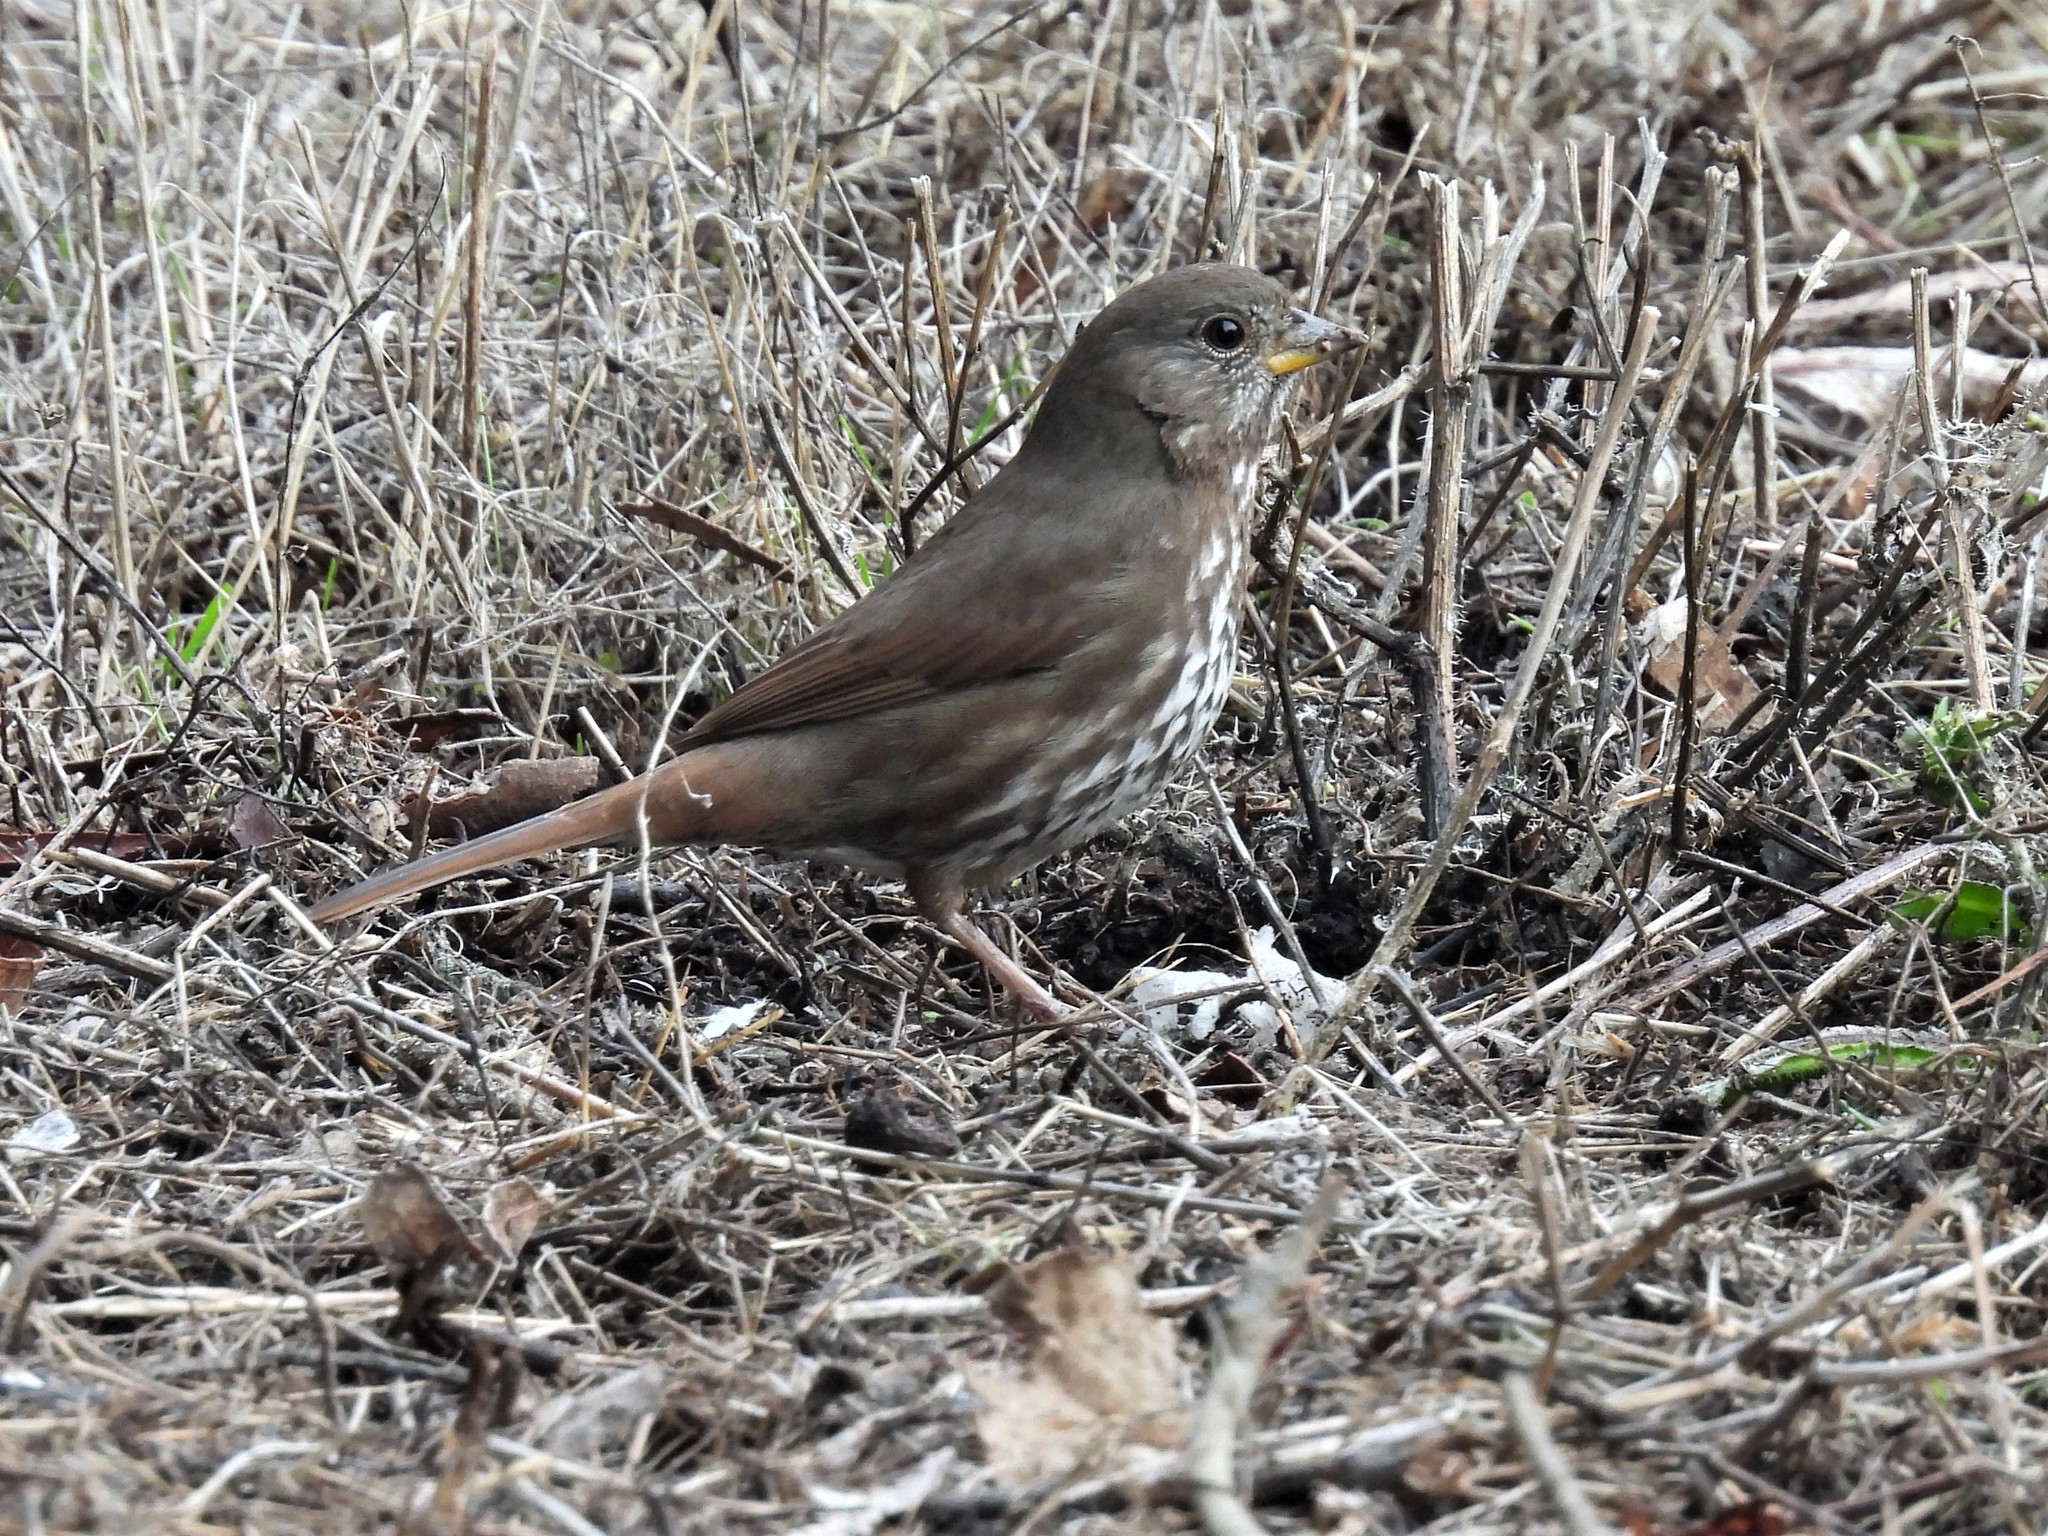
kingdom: Animalia
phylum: Chordata
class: Aves
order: Passeriformes
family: Passerellidae
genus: Passerella
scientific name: Passerella iliaca
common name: Fox sparrow
